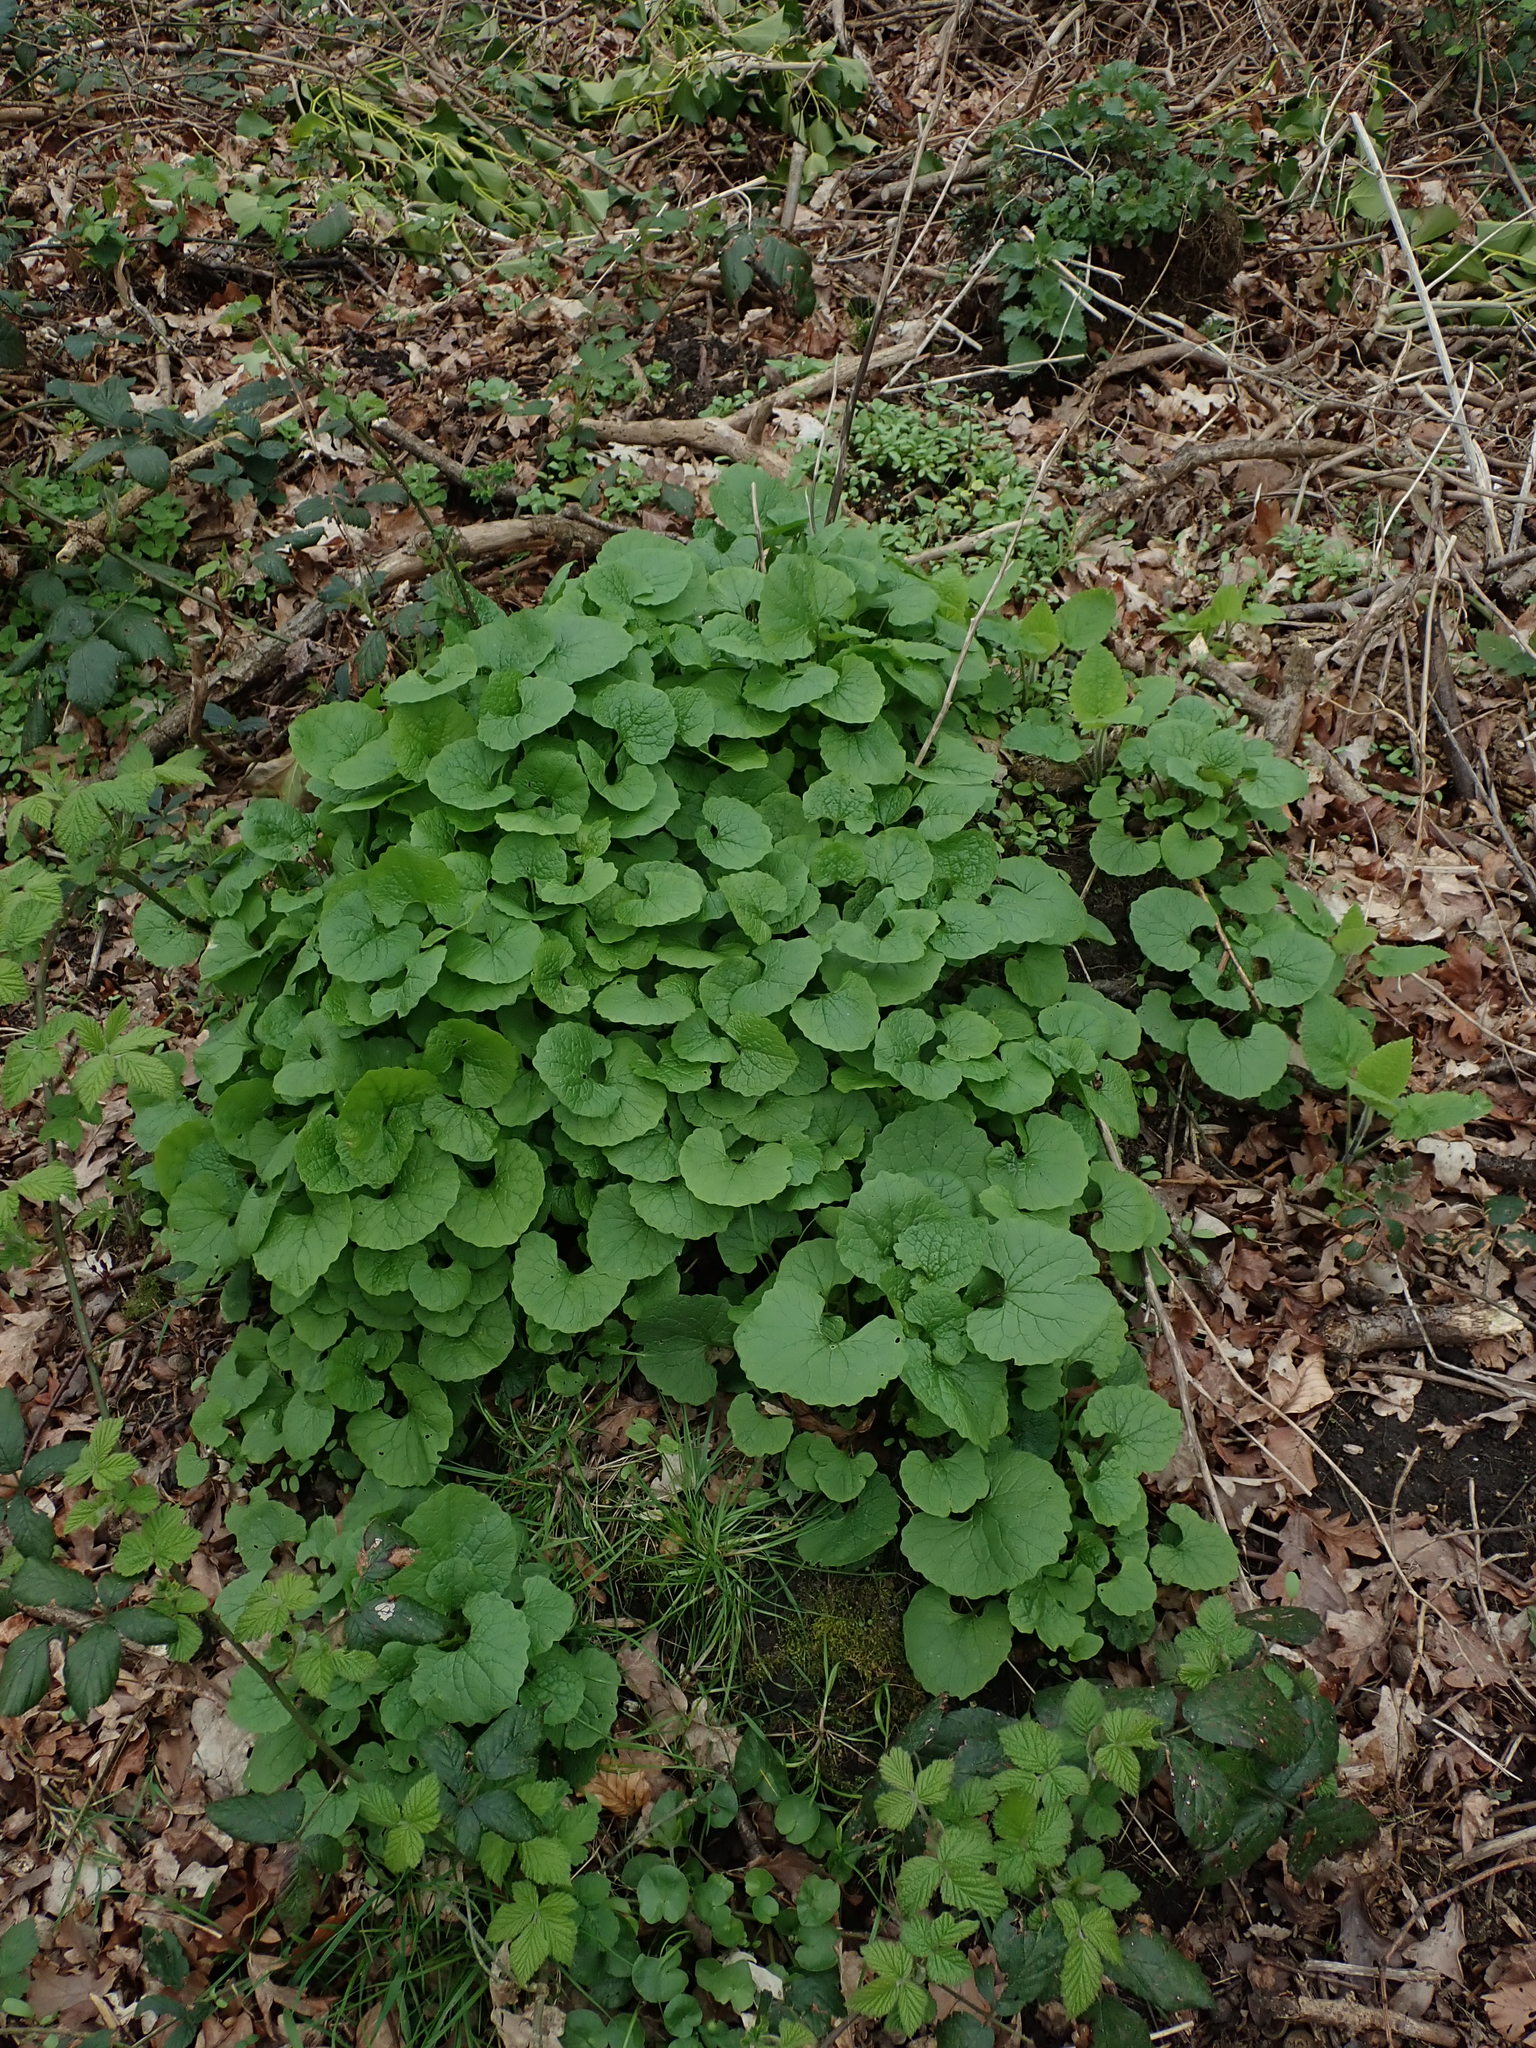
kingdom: Plantae
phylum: Tracheophyta
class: Magnoliopsida
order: Brassicales
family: Brassicaceae
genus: Alliaria
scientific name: Alliaria petiolata
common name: Garlic mustard
